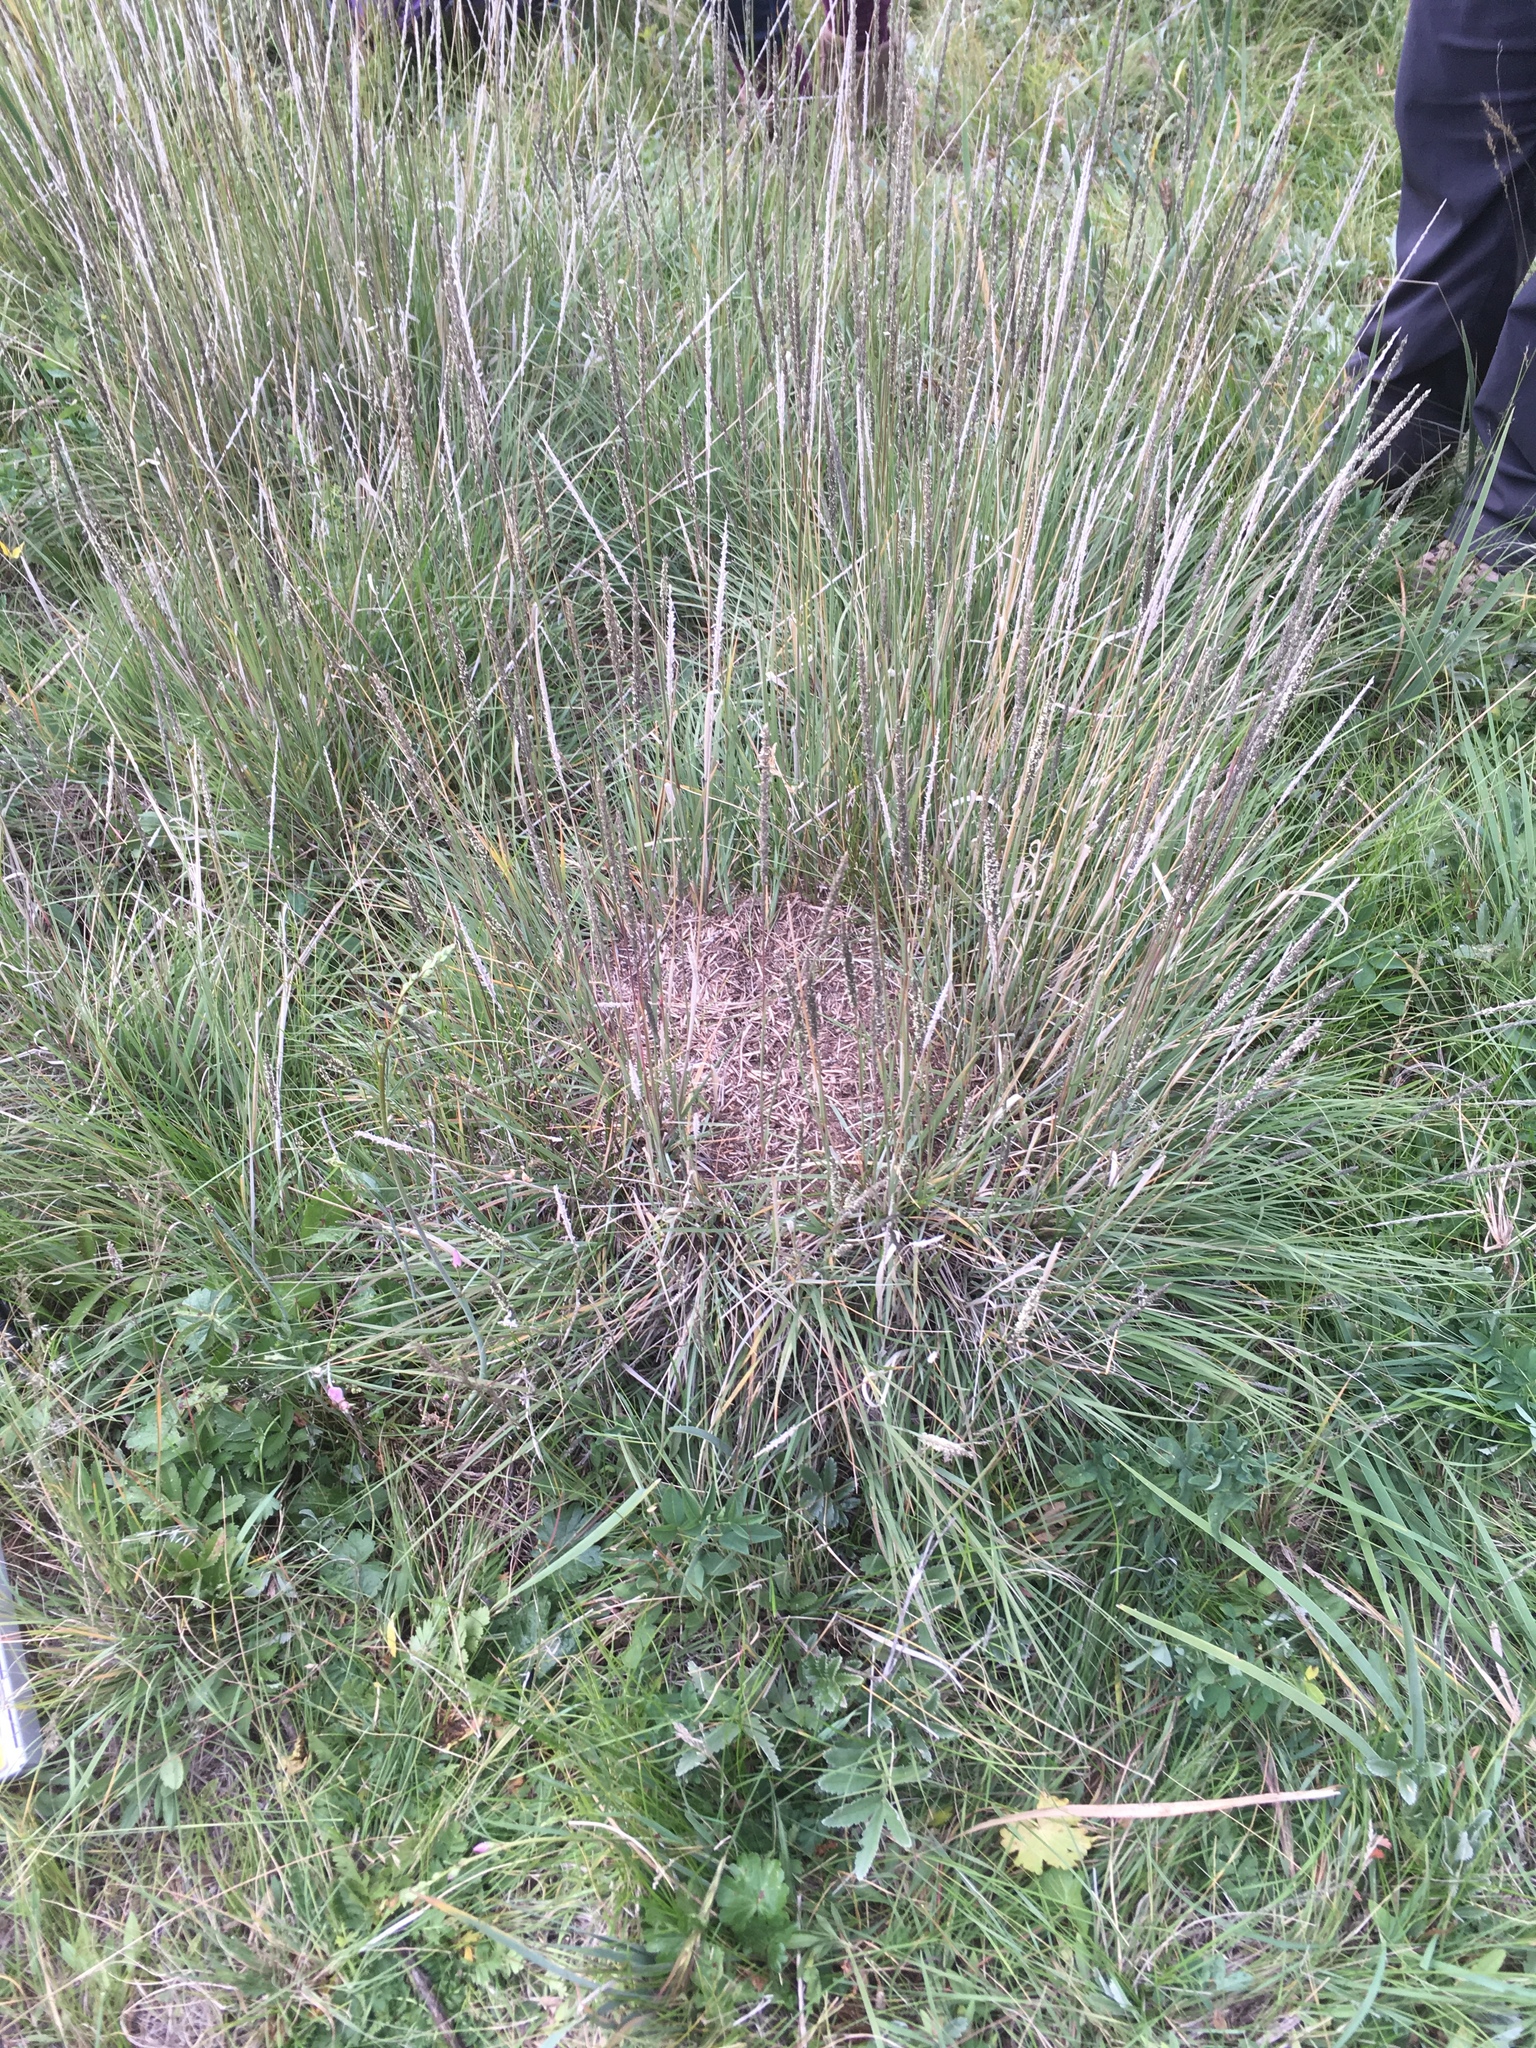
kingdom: Plantae
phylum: Tracheophyta
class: Liliopsida
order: Poales
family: Poaceae
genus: Muhlenbergia
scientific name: Muhlenbergia rigens
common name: Deer grass
